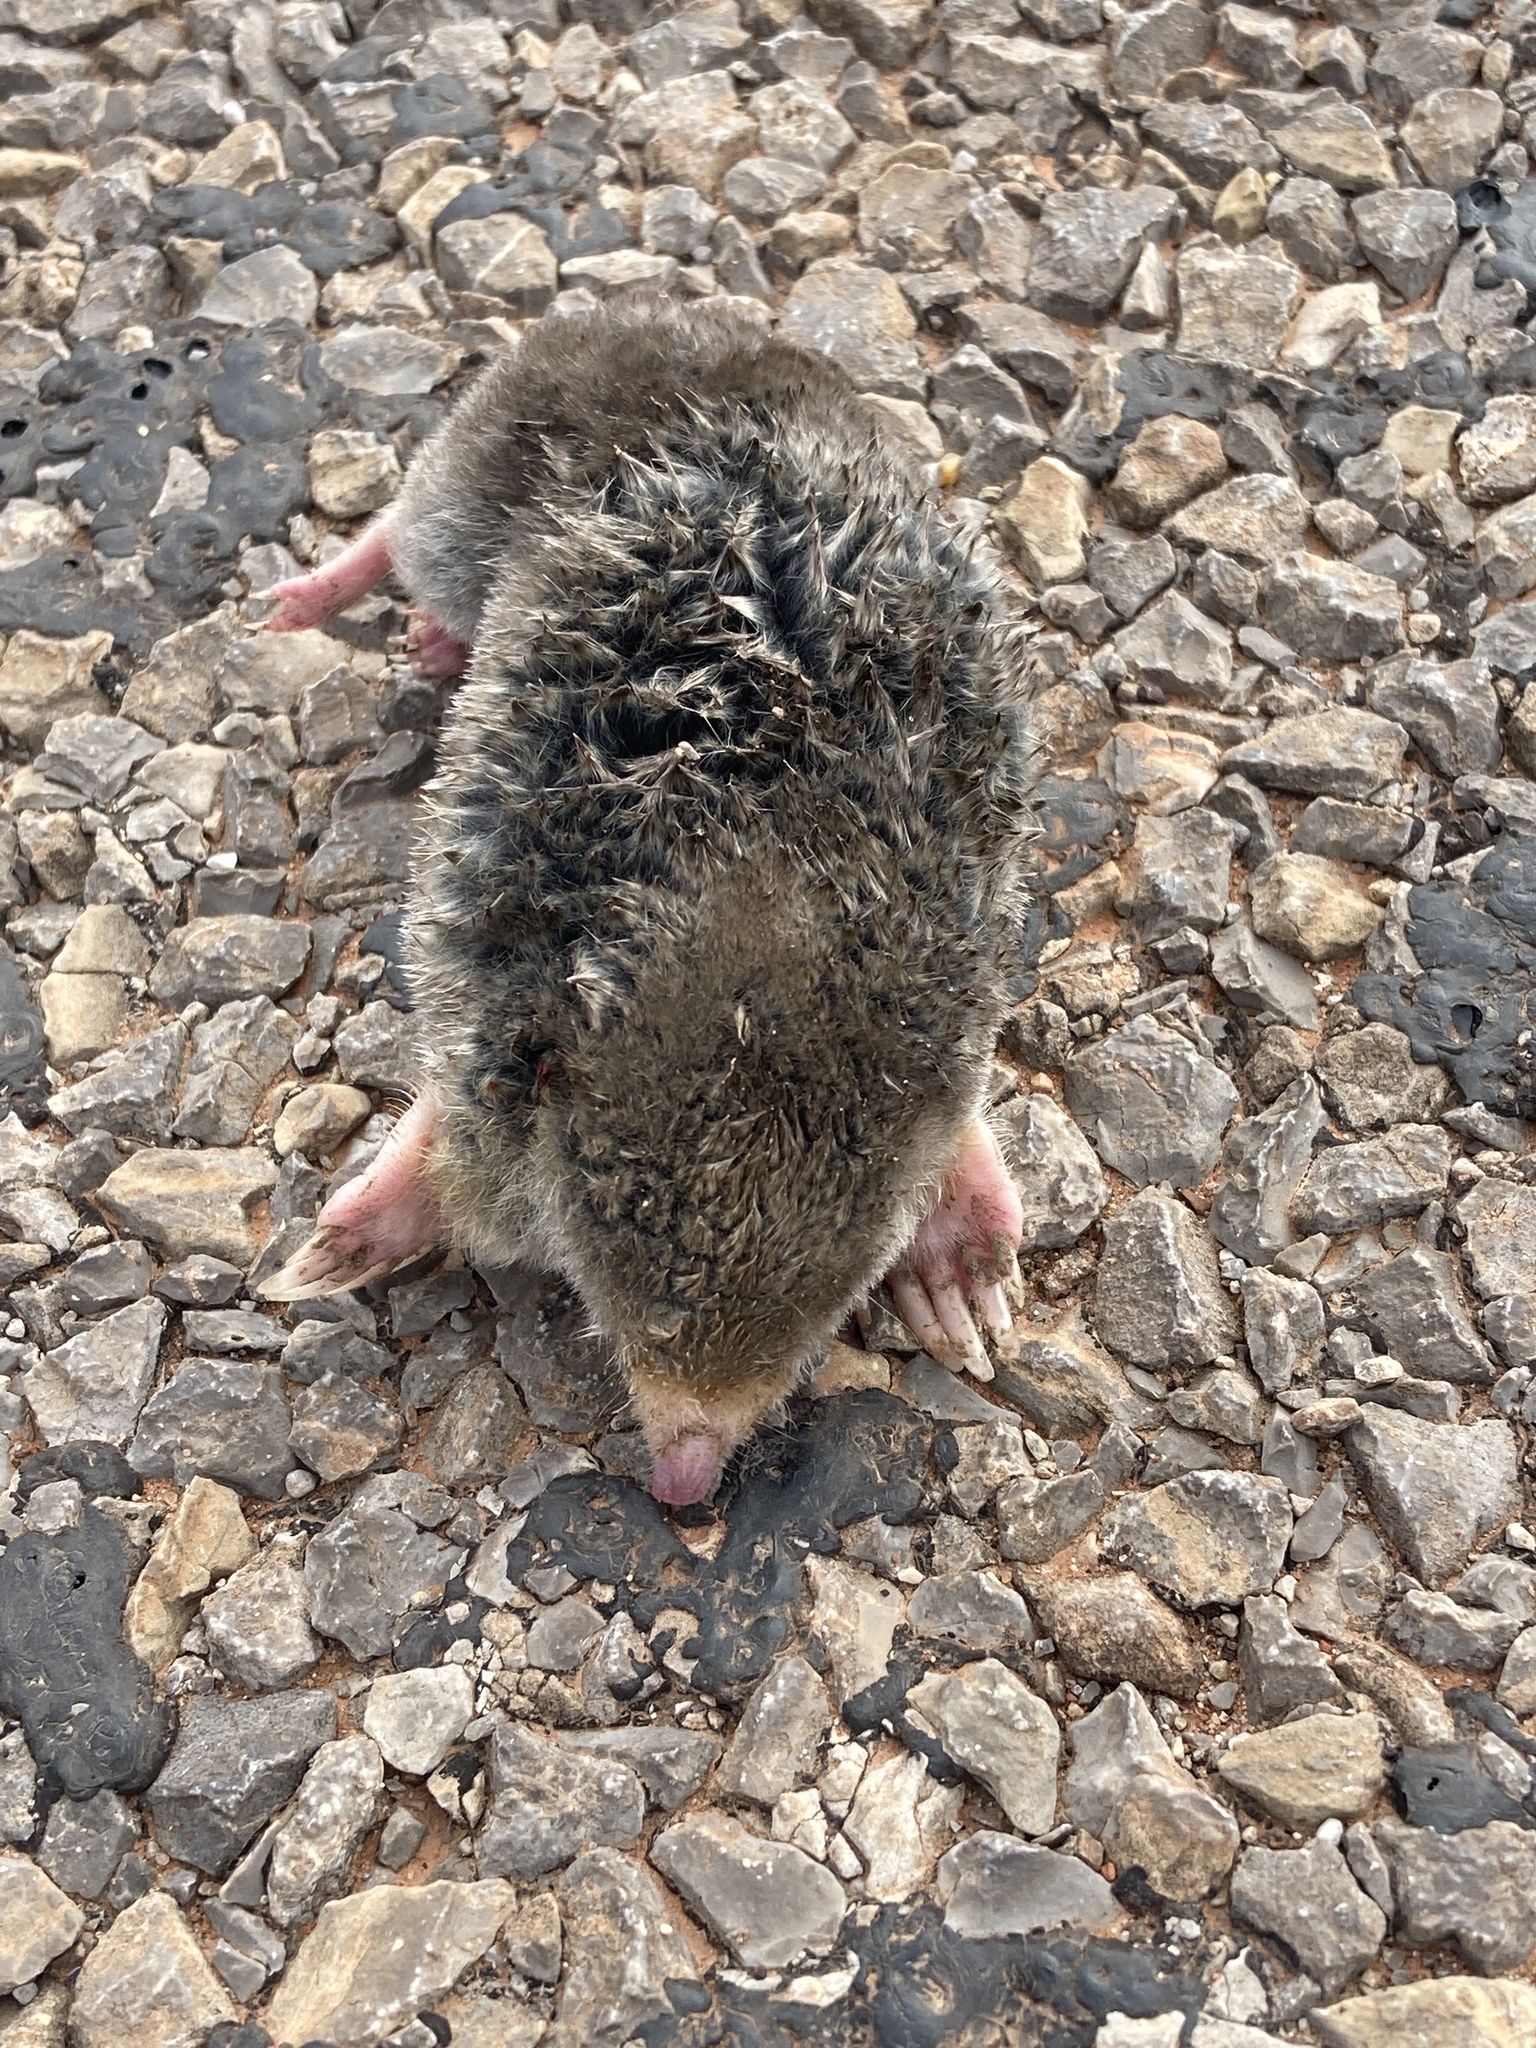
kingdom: Animalia
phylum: Chordata
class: Mammalia
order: Soricomorpha
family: Talpidae
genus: Scalopus
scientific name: Scalopus aquaticus
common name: Eastern mole
